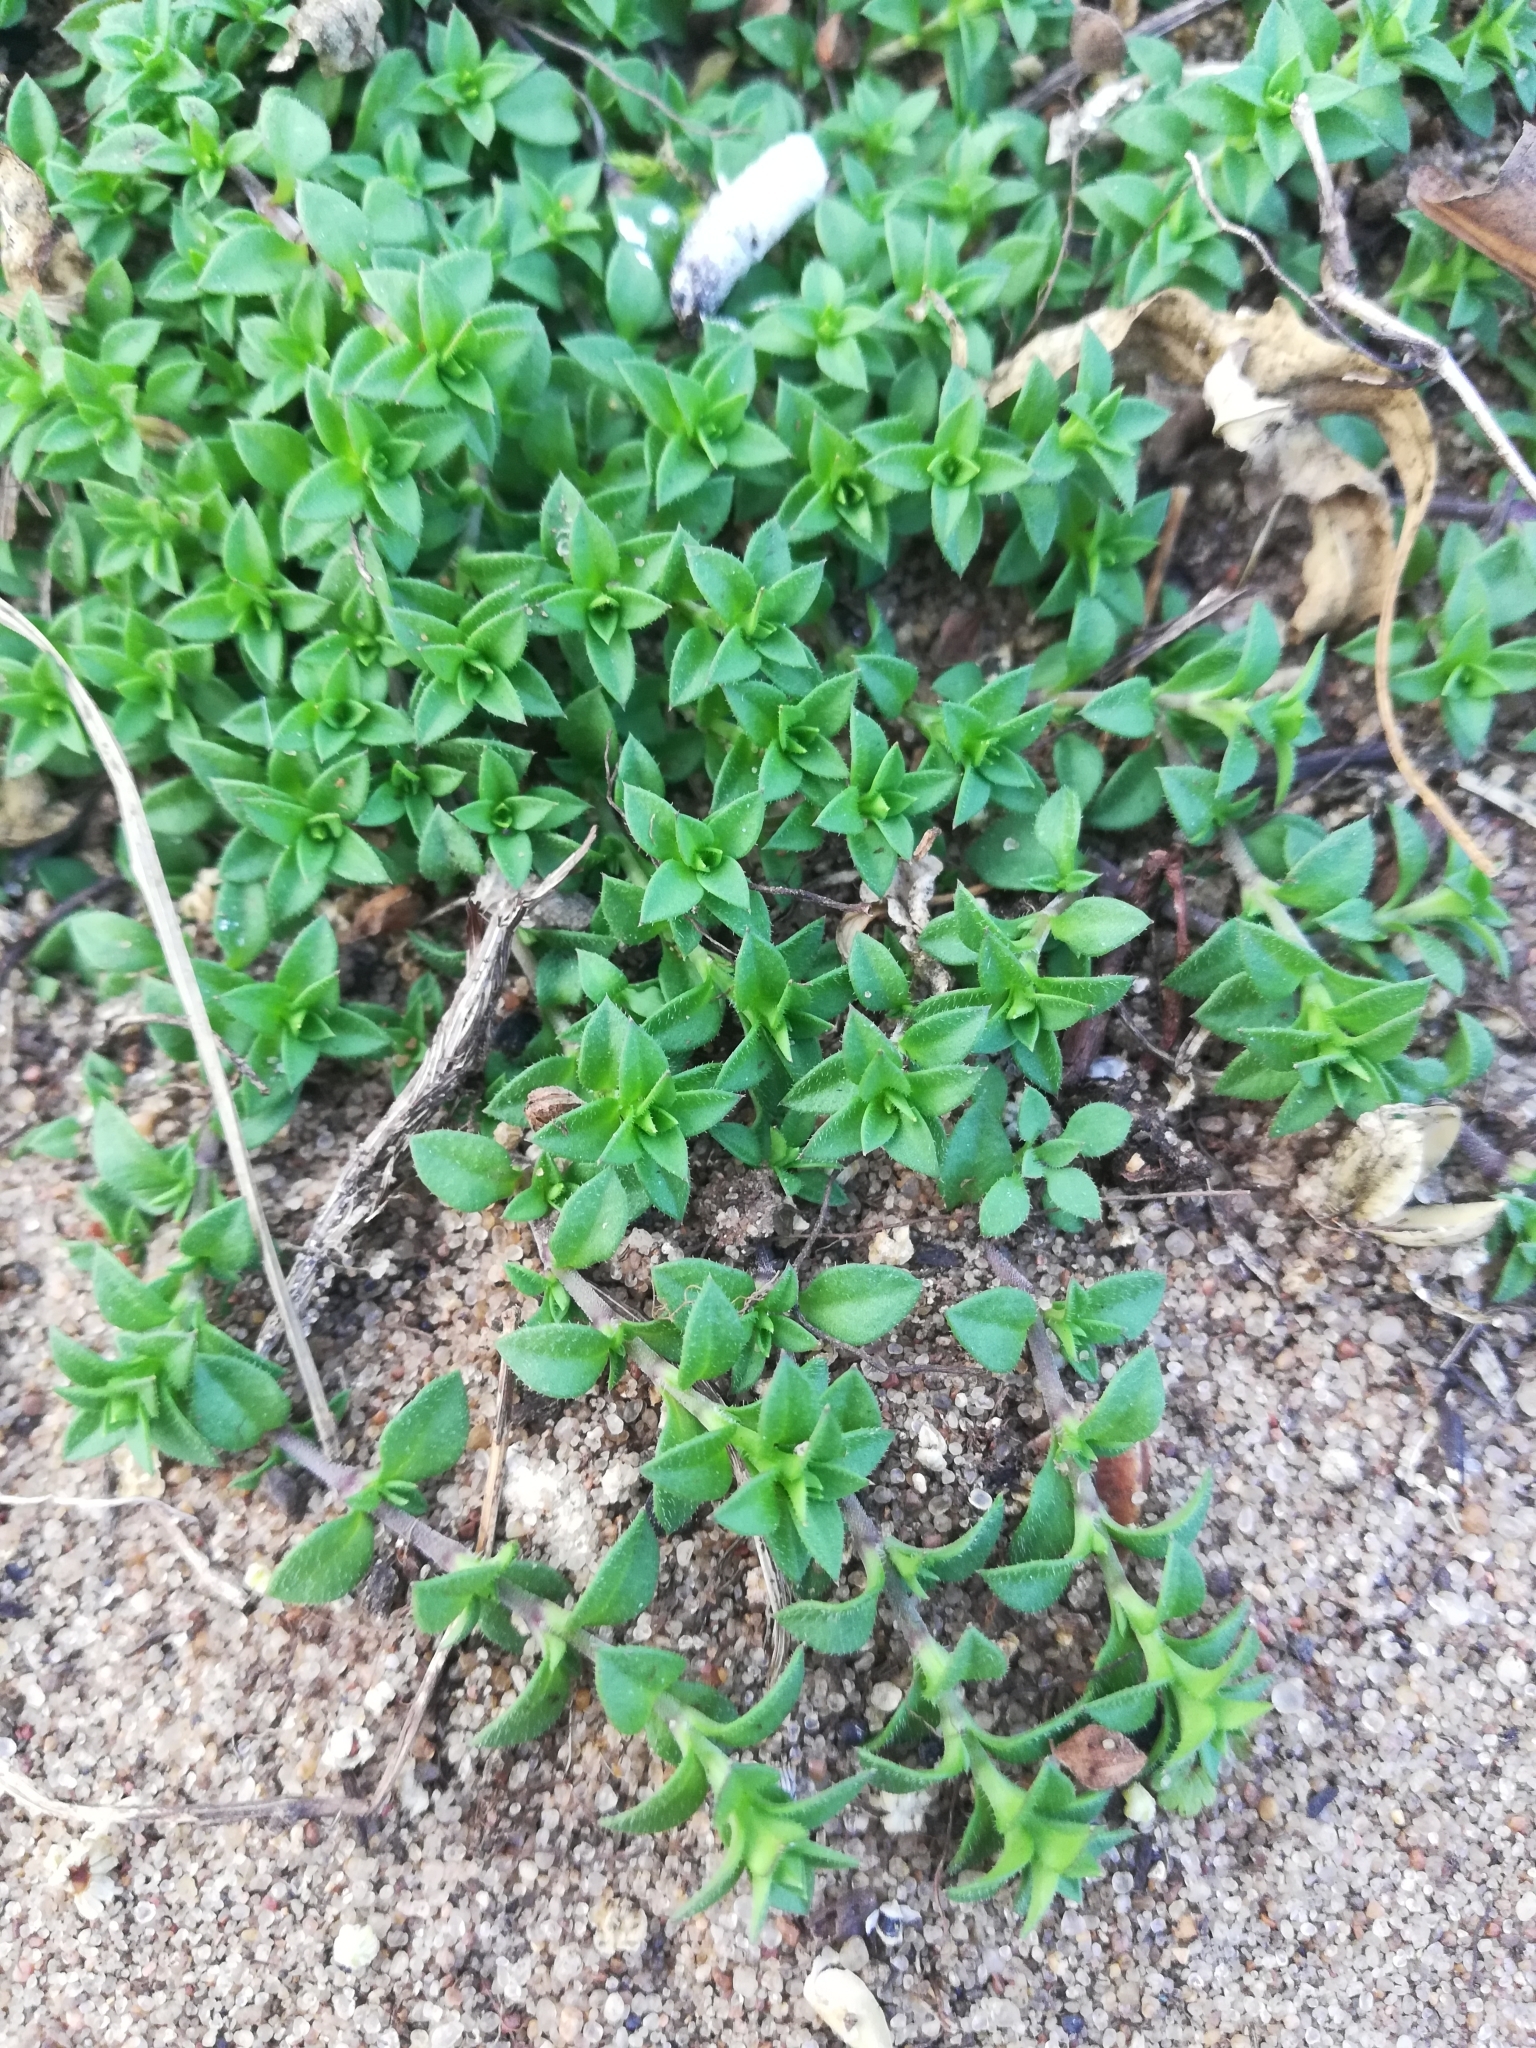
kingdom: Plantae
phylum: Tracheophyta
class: Magnoliopsida
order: Caryophyllales
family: Caryophyllaceae
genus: Arenaria
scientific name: Arenaria serpyllifolia
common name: Thyme-leaved sandwort
